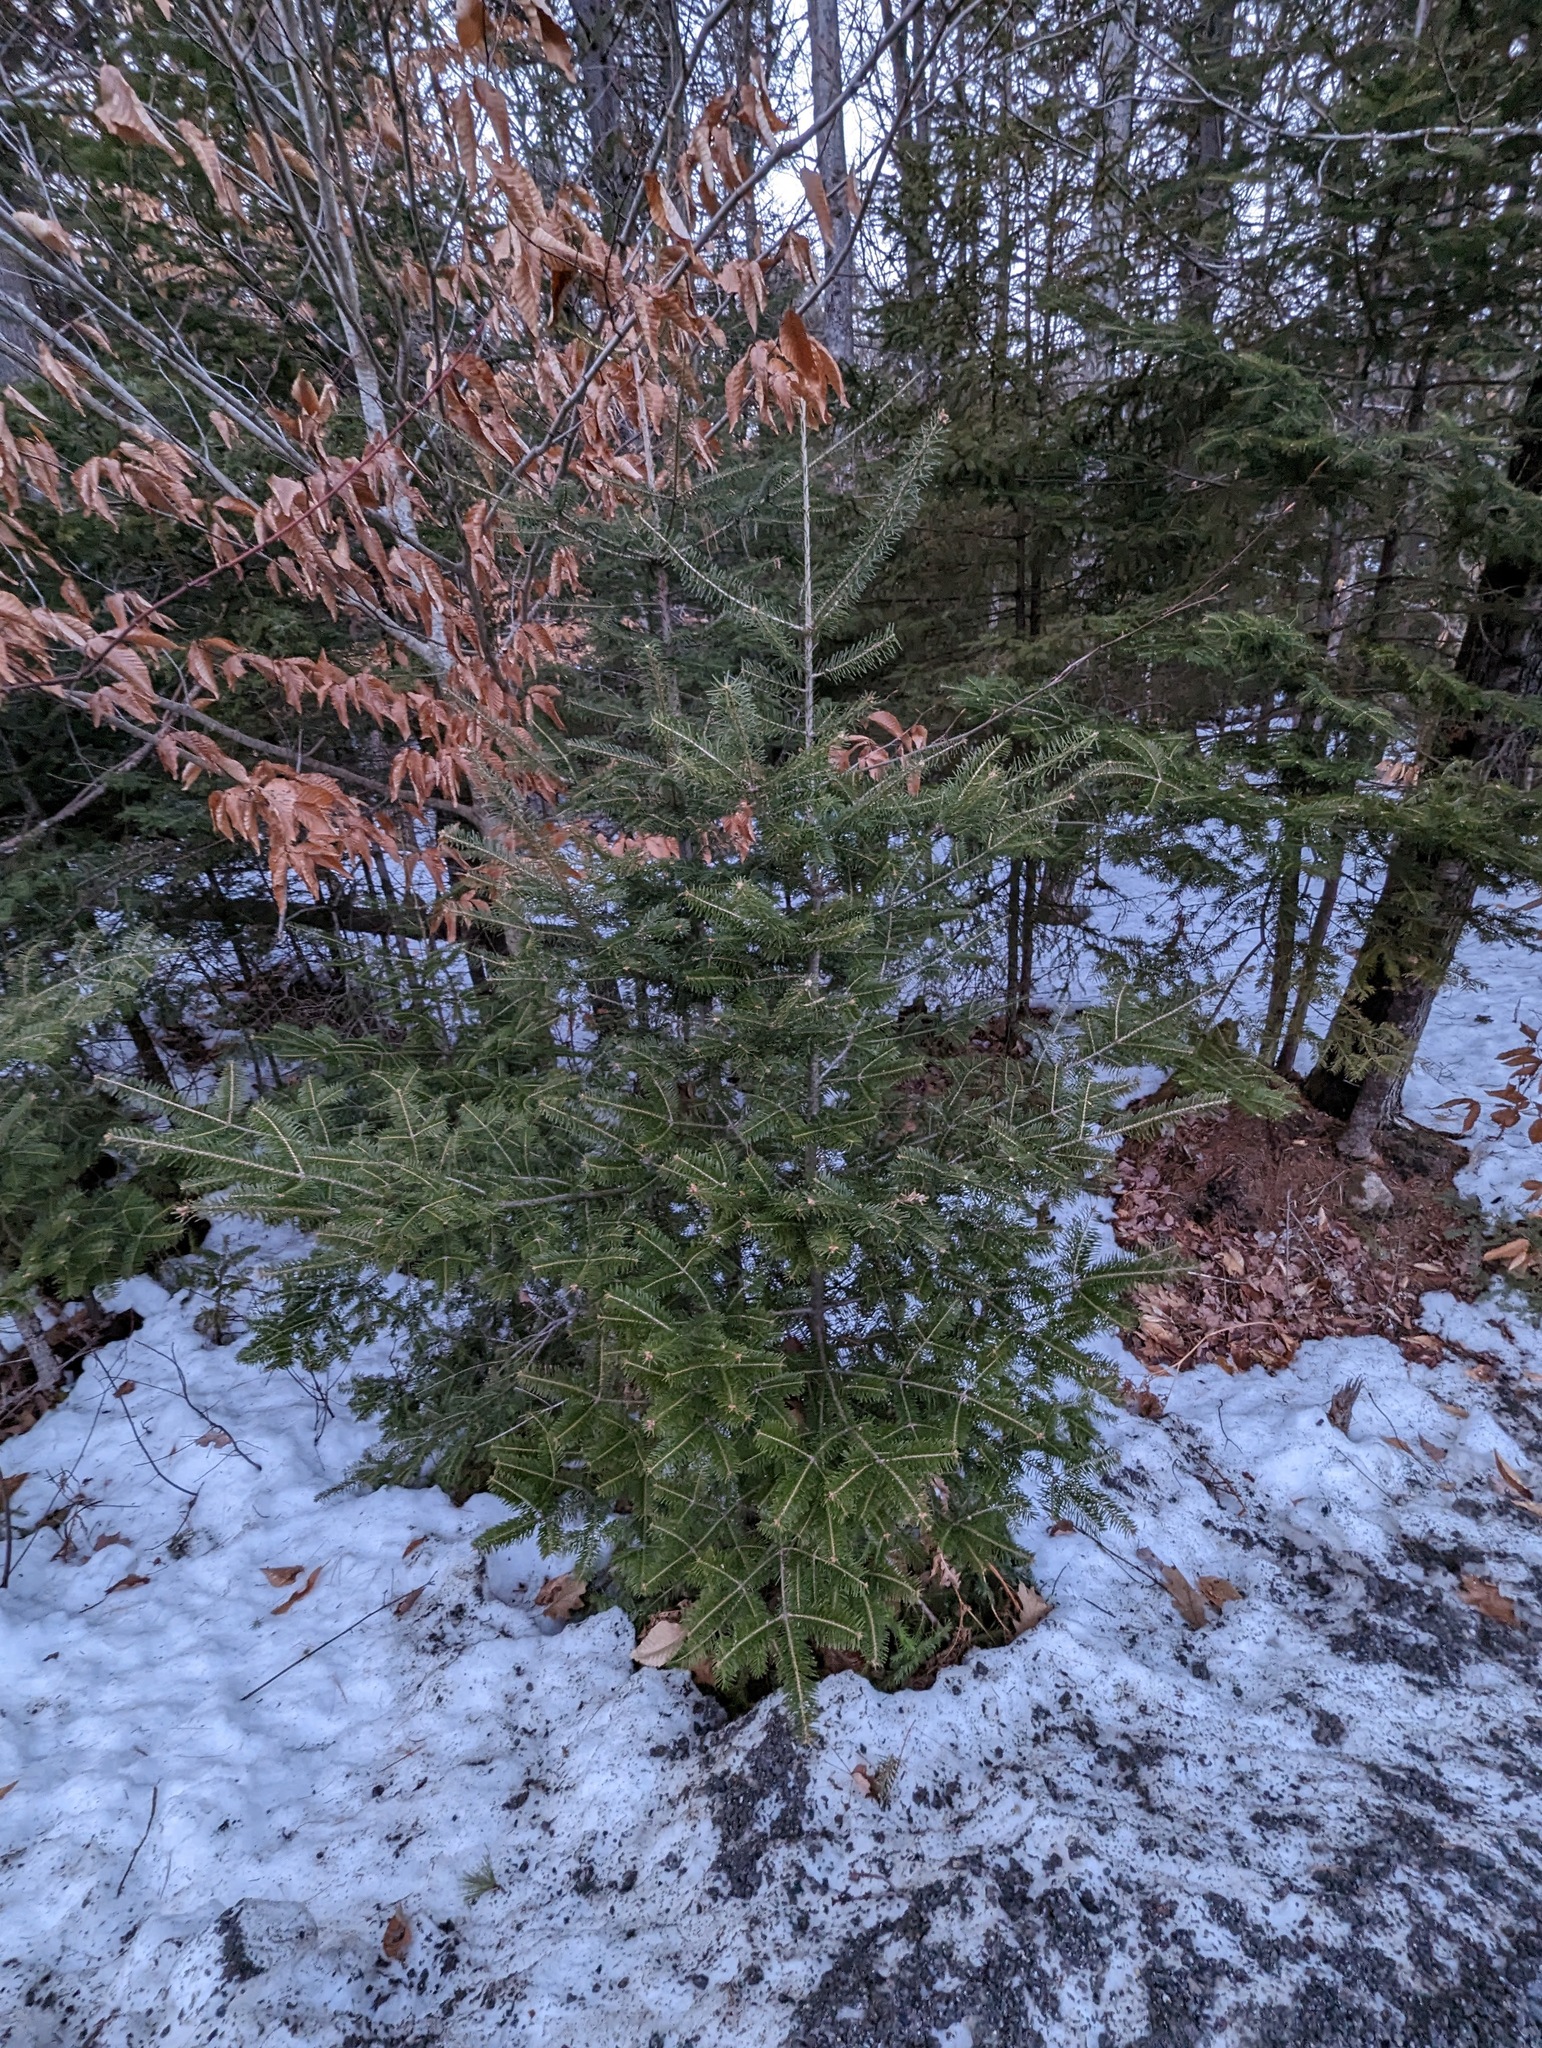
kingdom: Plantae
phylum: Tracheophyta
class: Pinopsida
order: Pinales
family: Pinaceae
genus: Abies
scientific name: Abies balsamea
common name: Balsam fir
